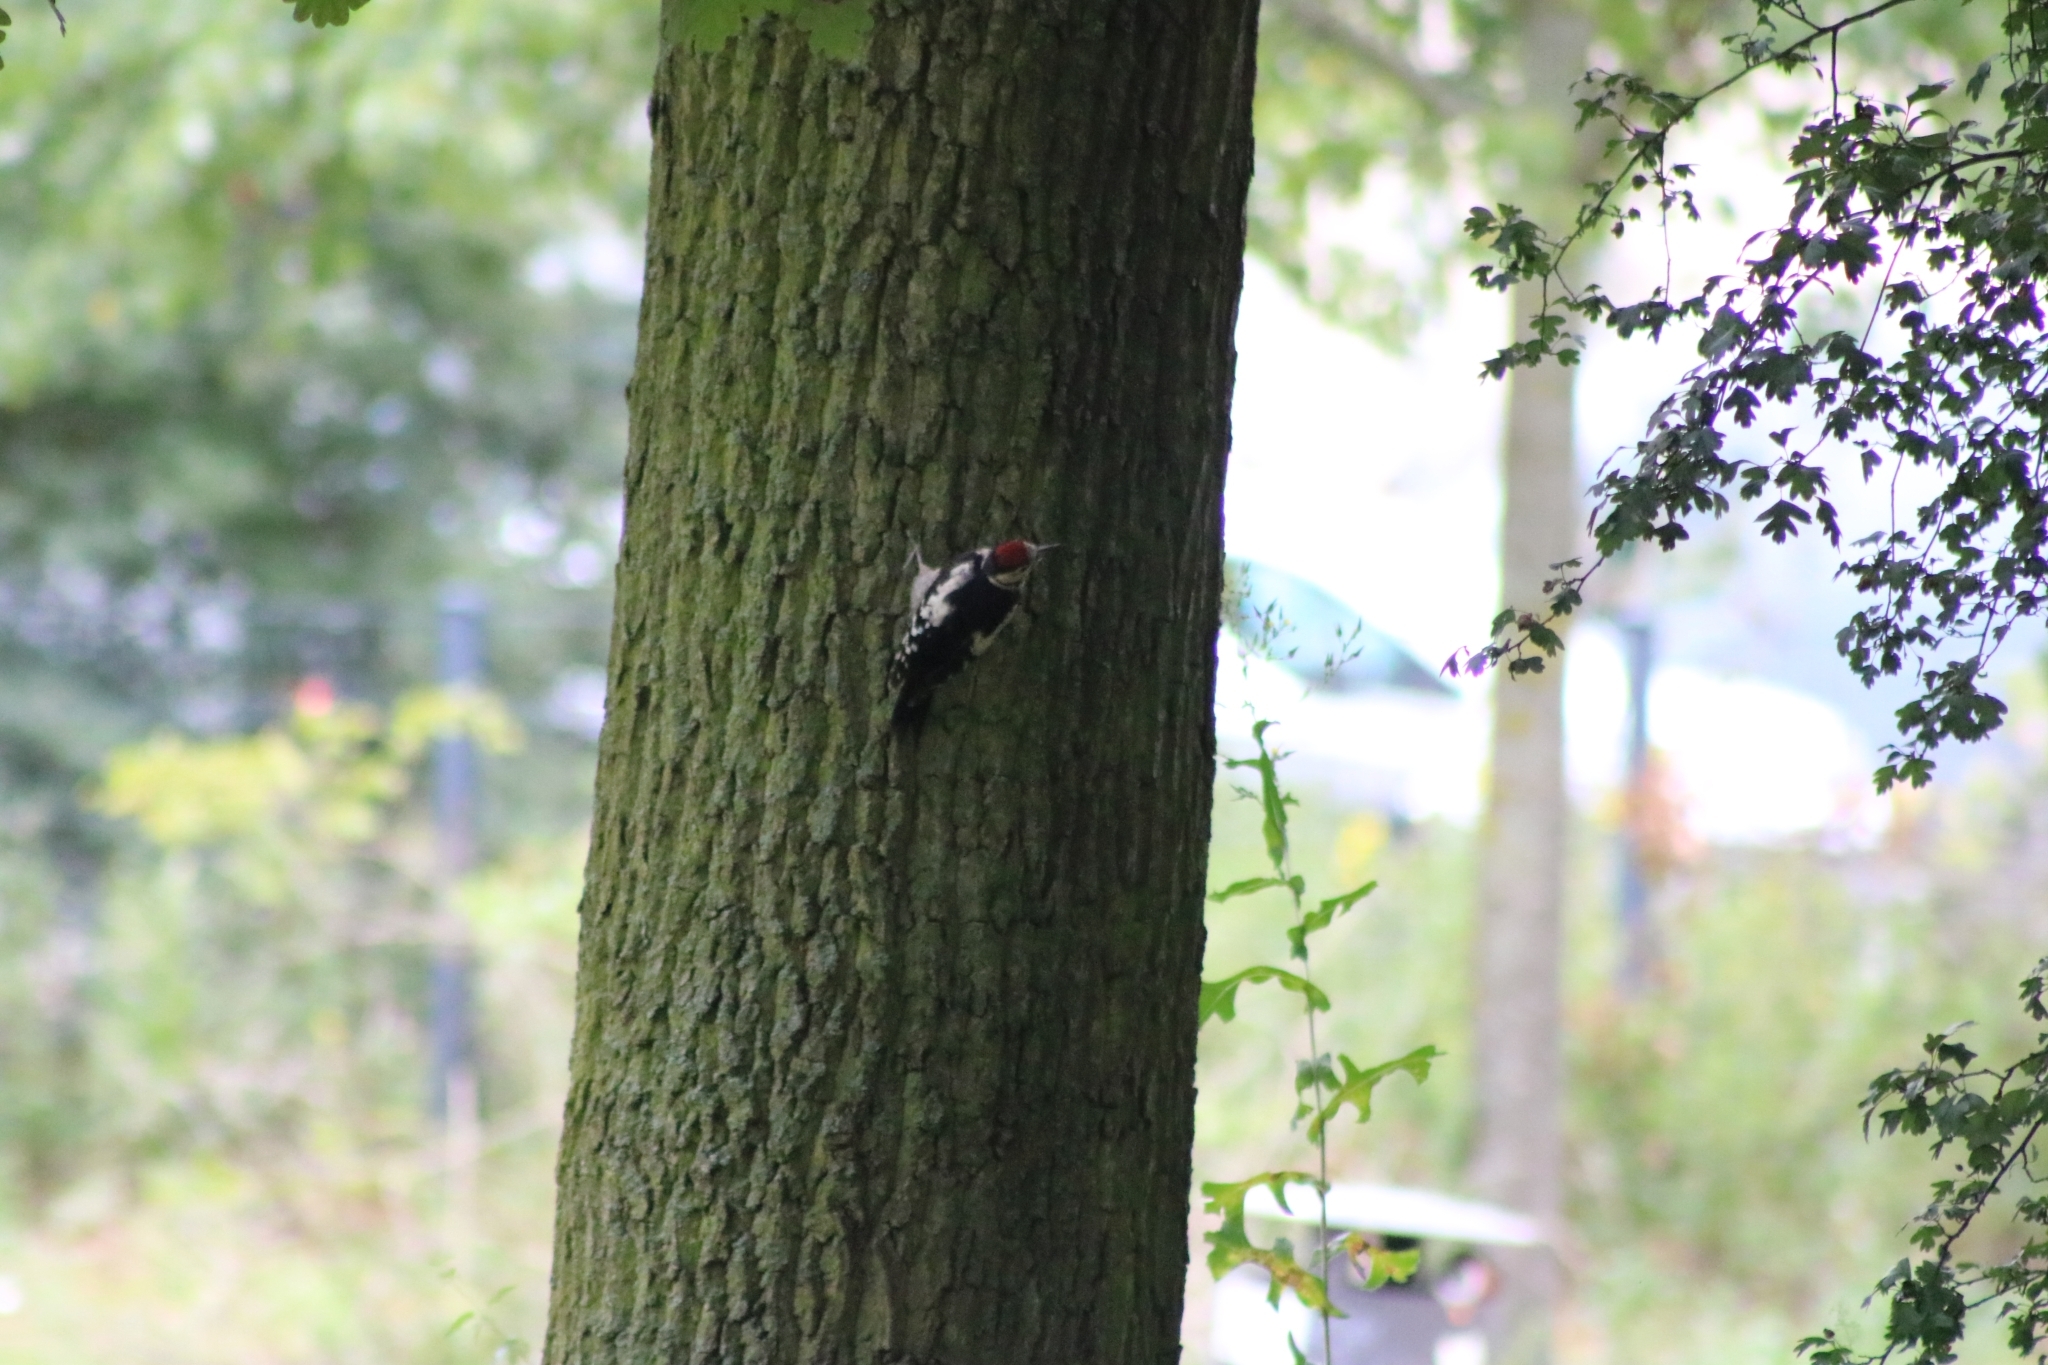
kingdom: Animalia
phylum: Chordata
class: Aves
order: Piciformes
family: Picidae
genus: Dendrocopos
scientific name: Dendrocopos major
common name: Great spotted woodpecker
